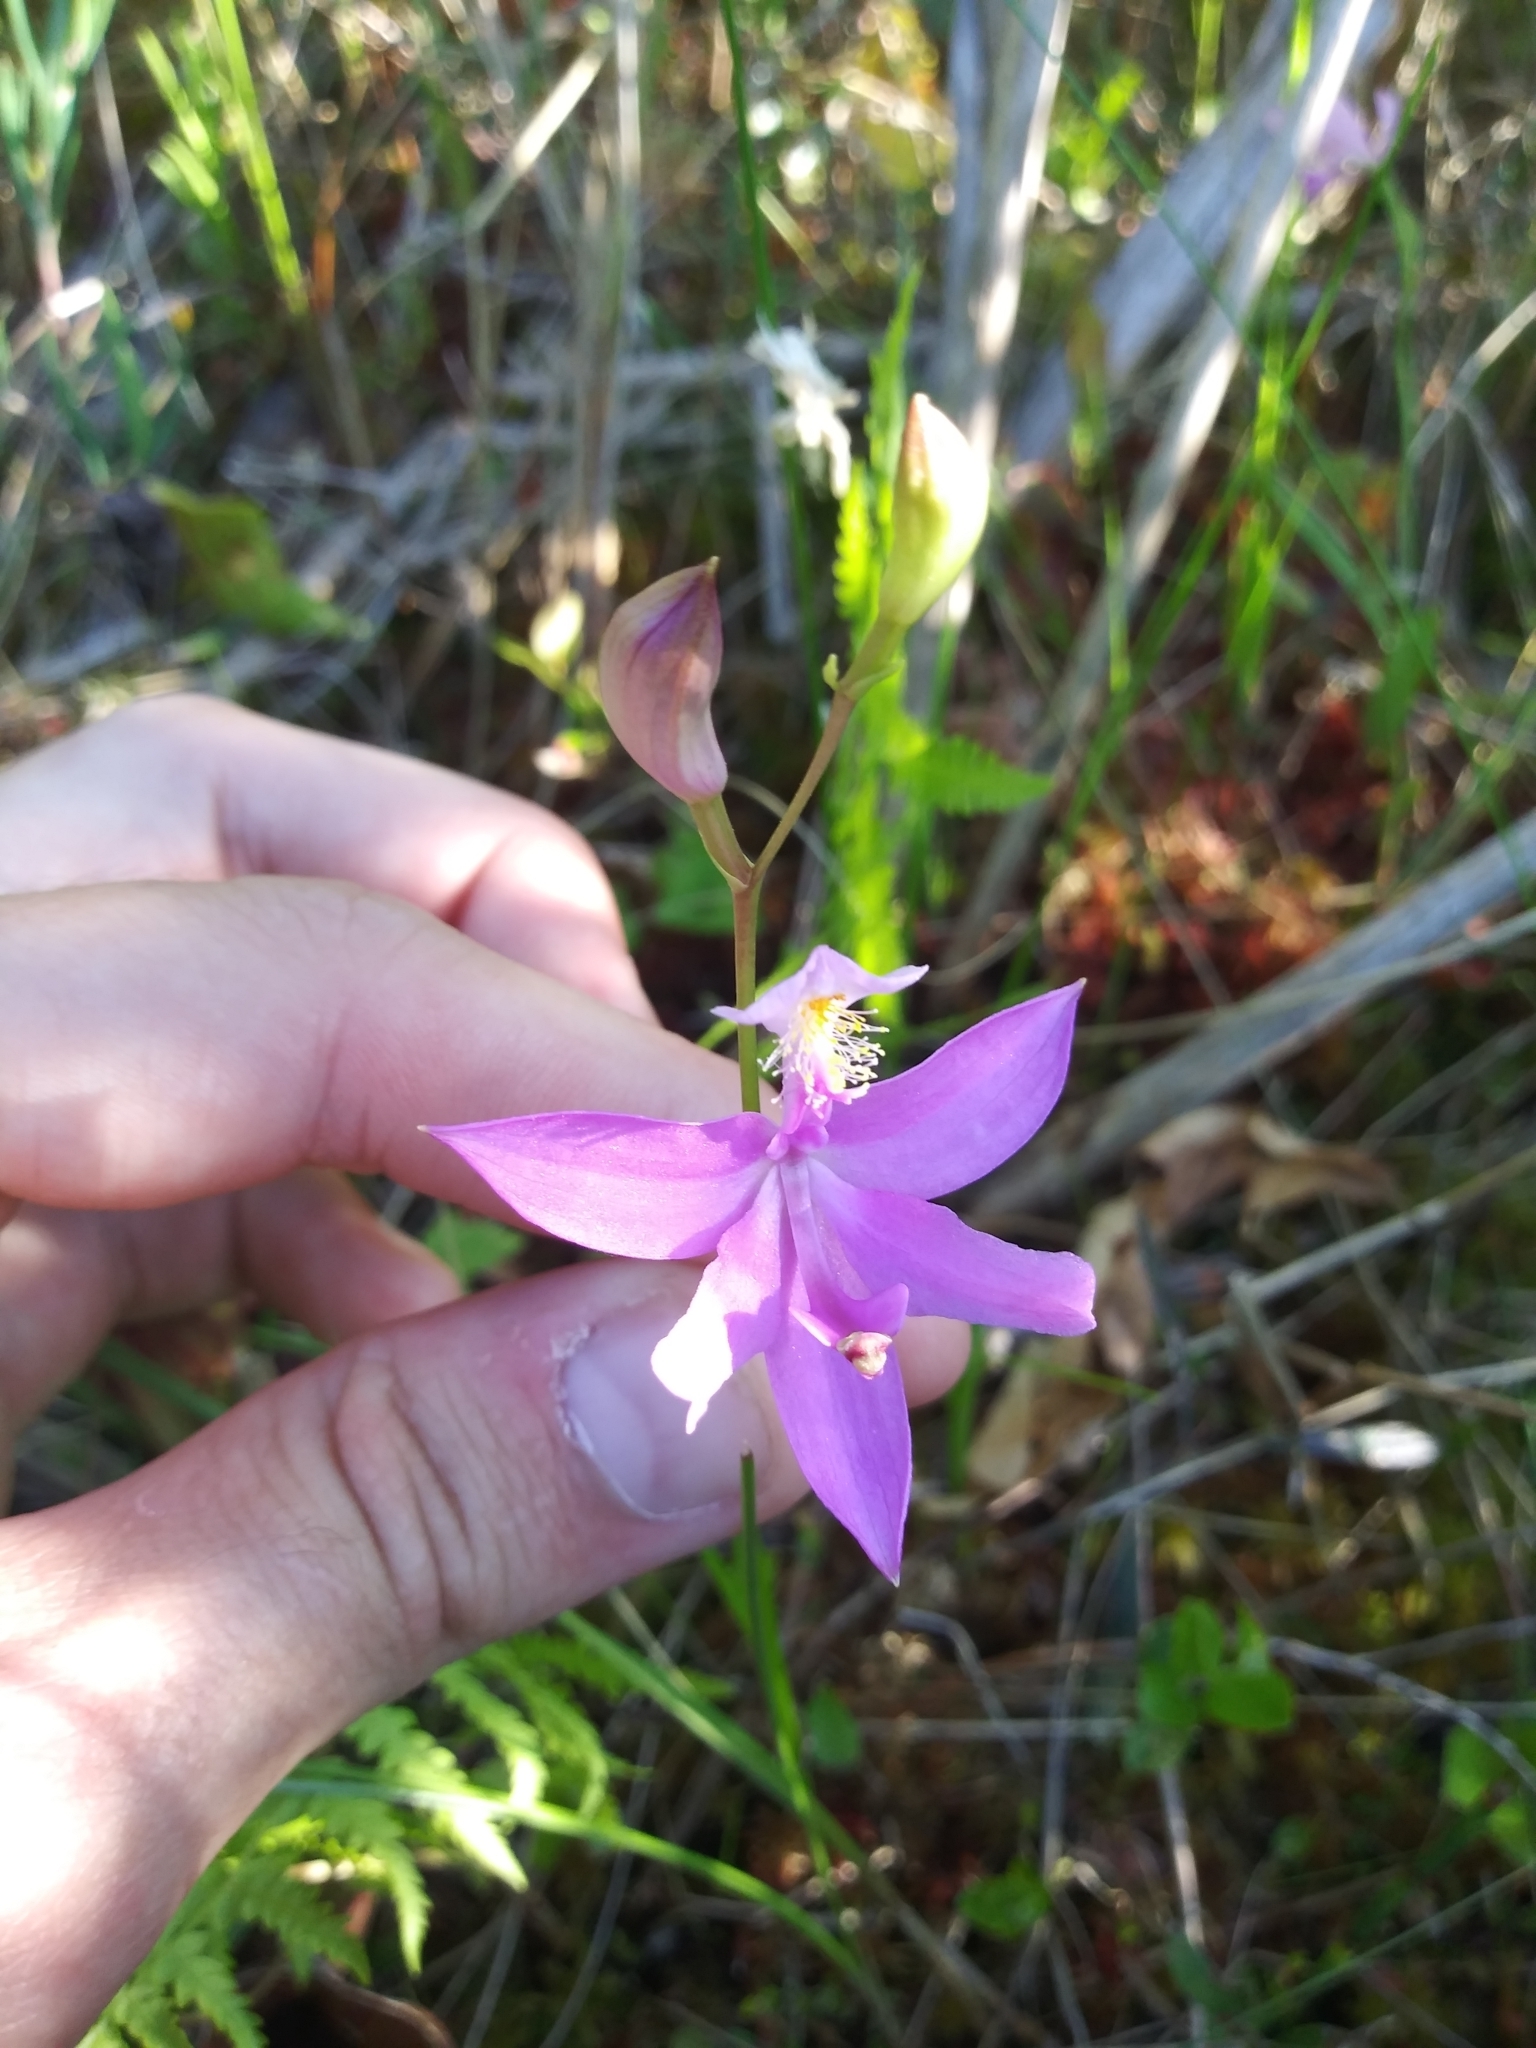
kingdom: Plantae
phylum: Tracheophyta
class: Liliopsida
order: Asparagales
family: Orchidaceae
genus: Calopogon
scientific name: Calopogon tuberosus
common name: Grass-pink
